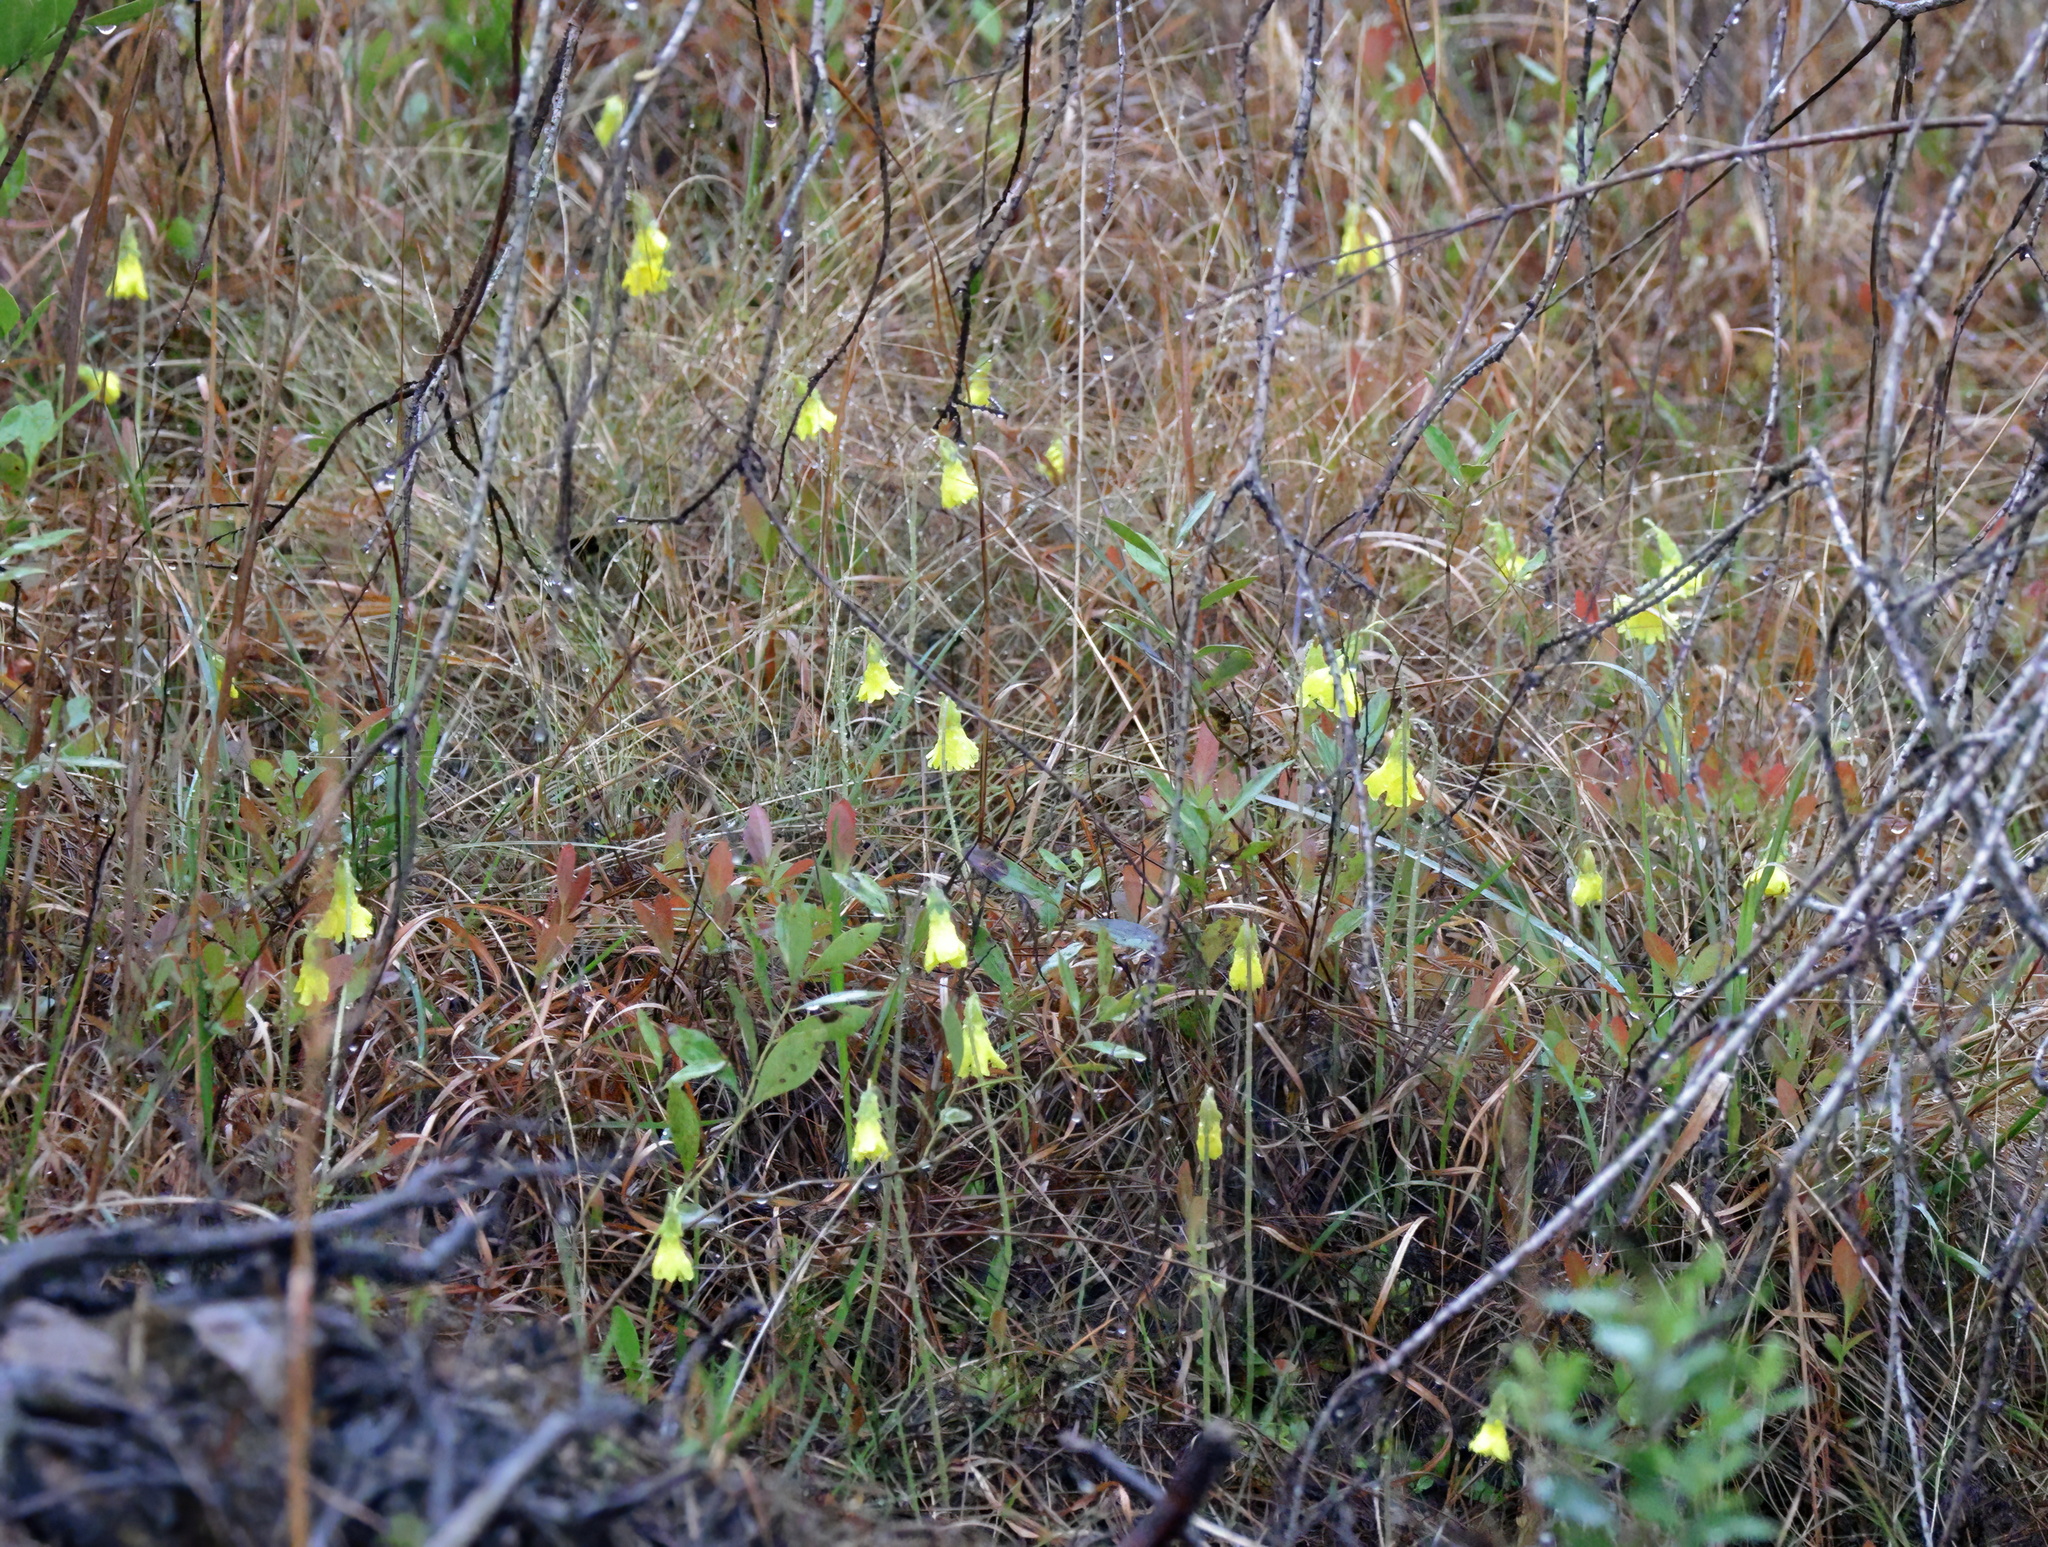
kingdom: Plantae
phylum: Tracheophyta
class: Magnoliopsida
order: Lamiales
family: Lentibulariaceae
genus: Pinguicula
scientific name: Pinguicula lutea
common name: Yellow butterwort
